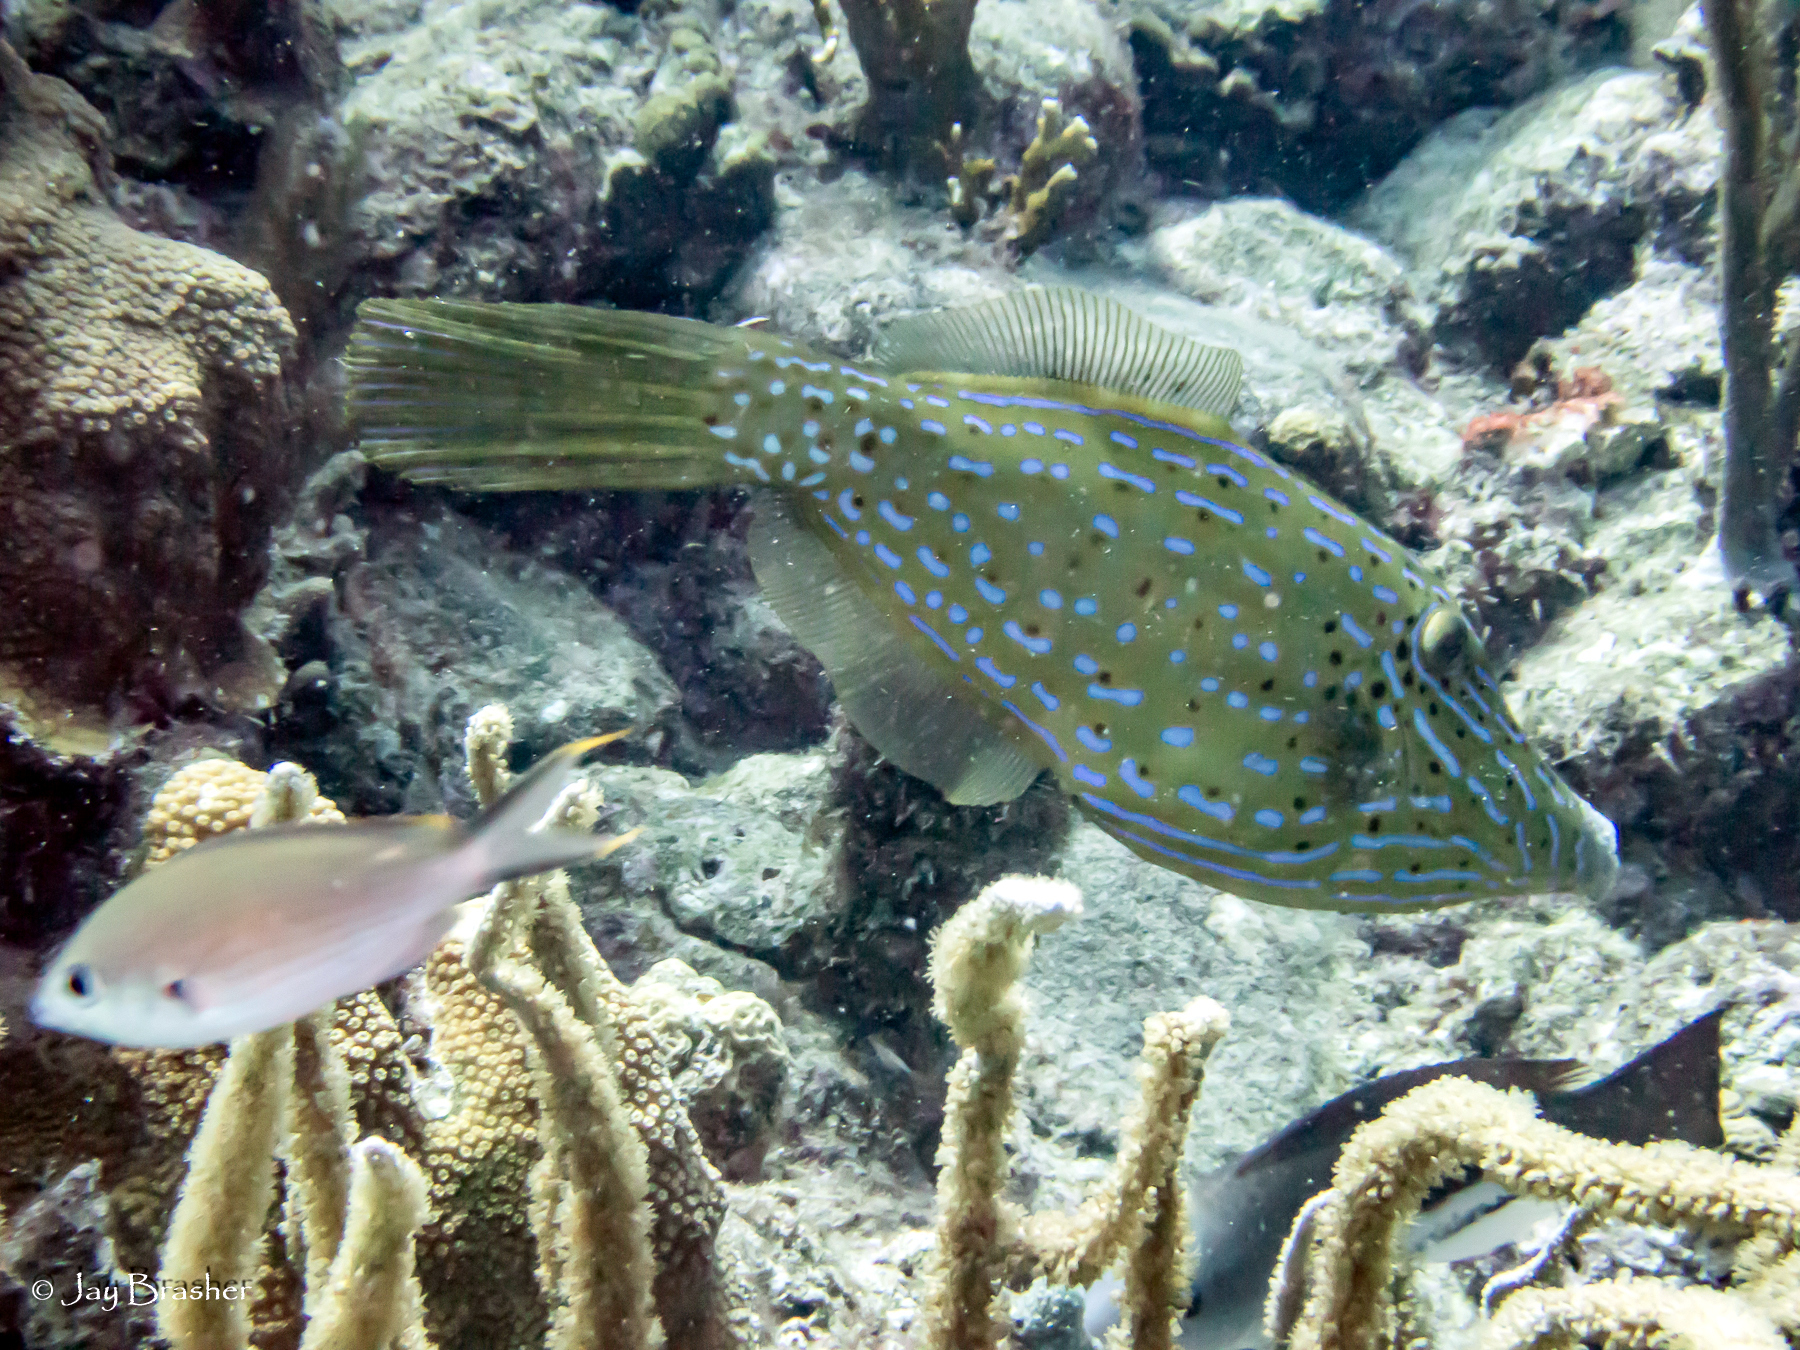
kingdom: Animalia
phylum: Chordata
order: Perciformes
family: Pomacentridae
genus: Chromis
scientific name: Chromis multilineata
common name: Brown chromis
